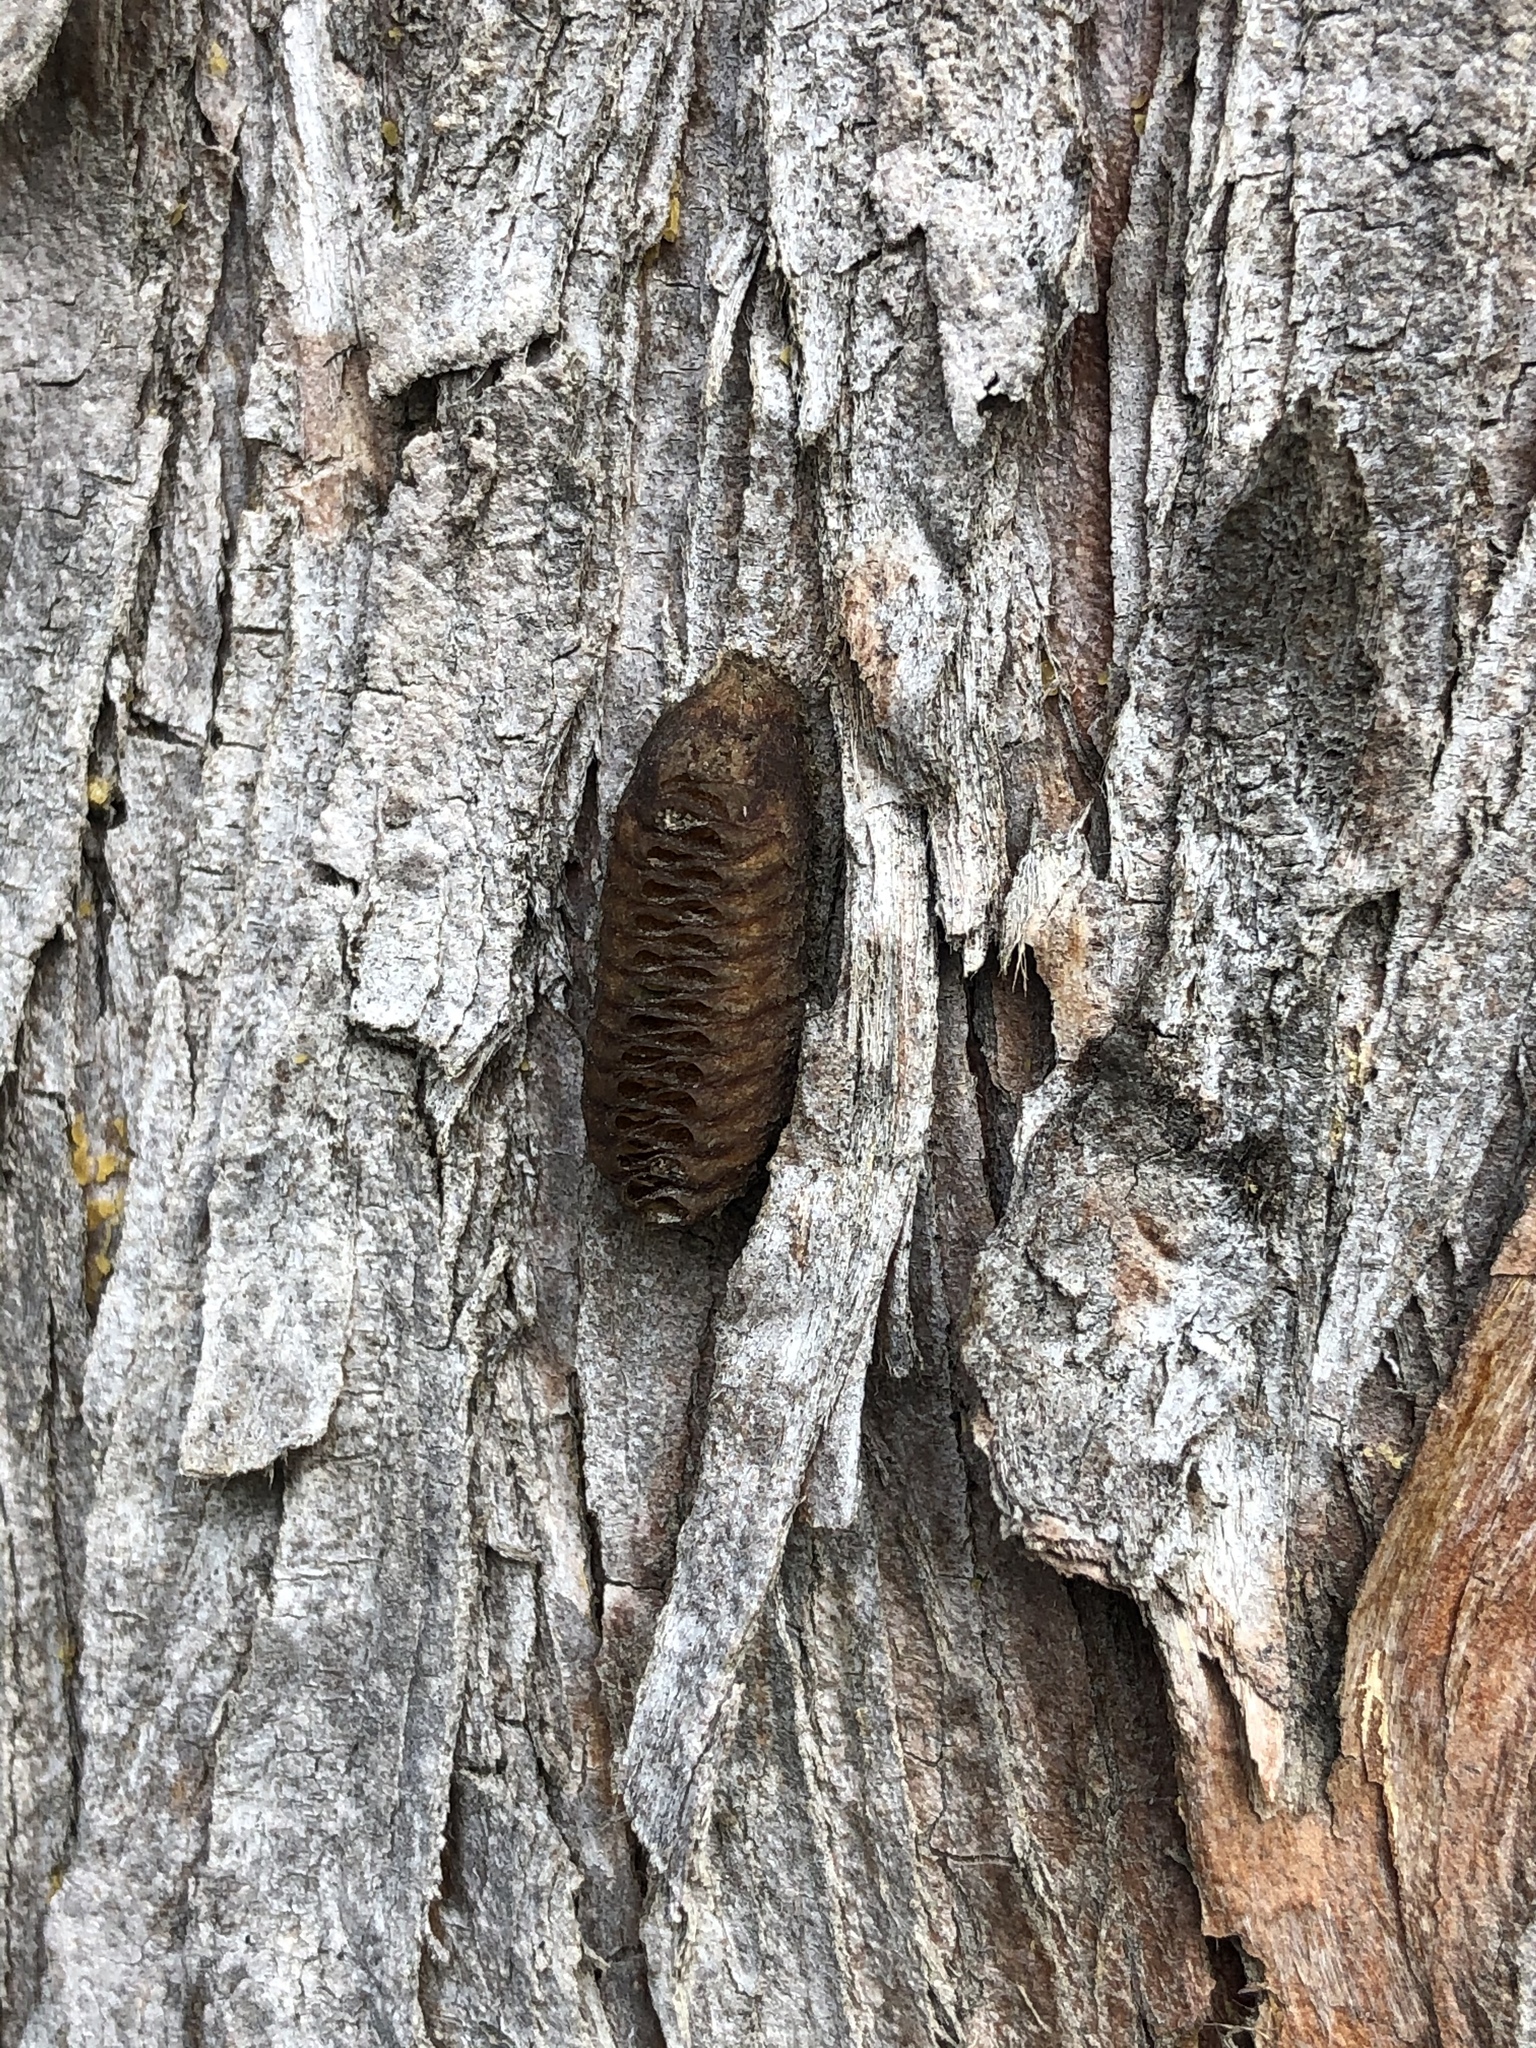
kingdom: Animalia
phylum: Arthropoda
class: Insecta
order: Mantodea
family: Mantidae
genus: Orthodera
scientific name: Orthodera novaezealandiae
